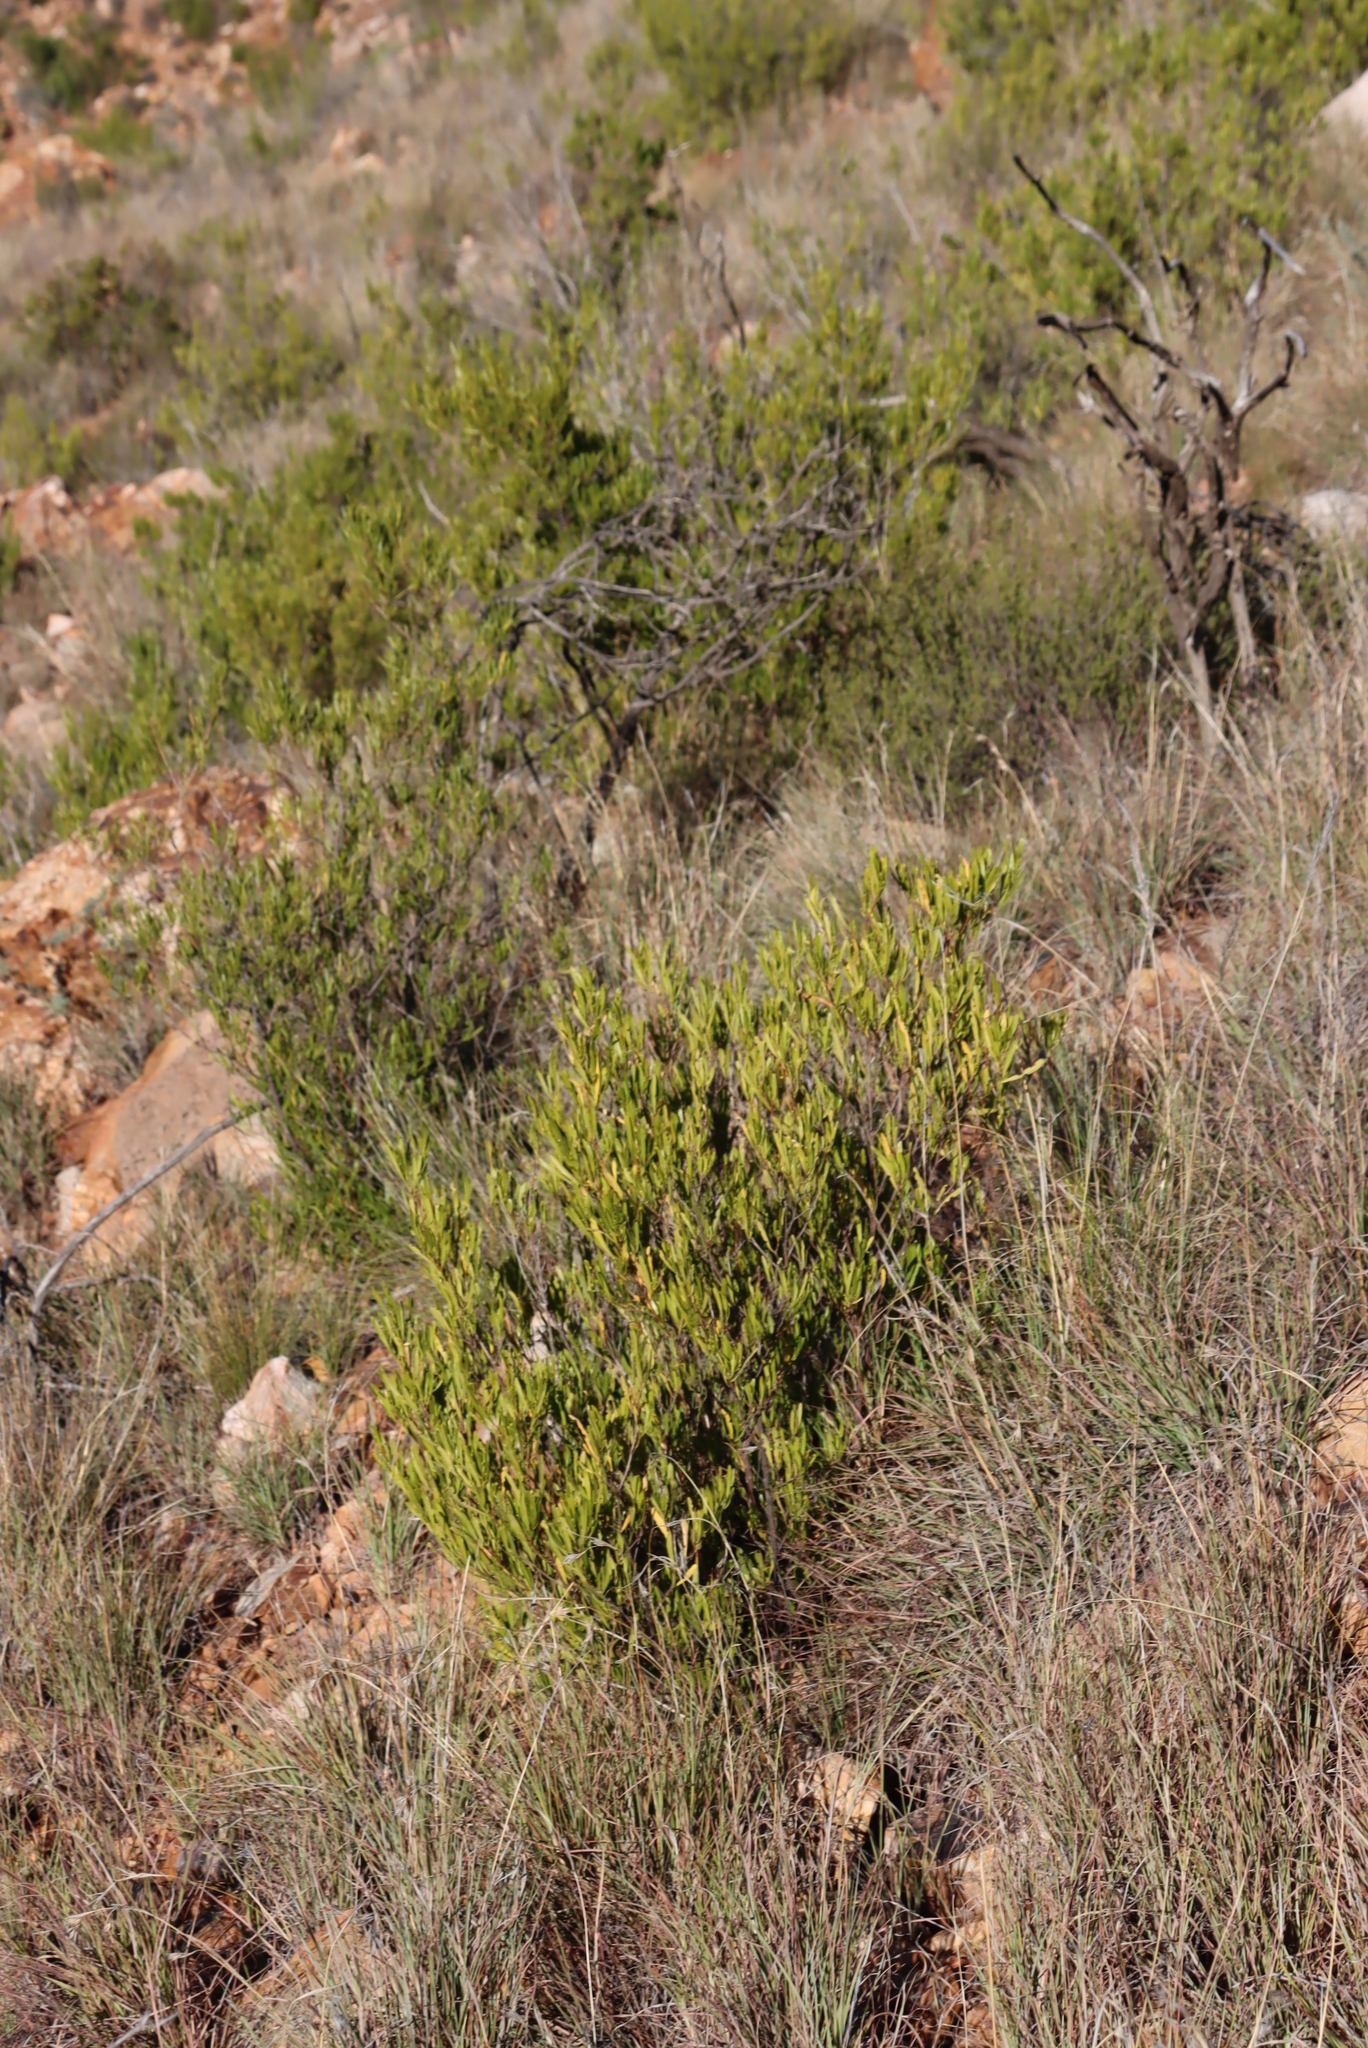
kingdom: Plantae
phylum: Tracheophyta
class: Magnoliopsida
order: Sapindales
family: Sapindaceae
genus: Dodonaea
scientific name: Dodonaea viscosa
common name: Hopbush
